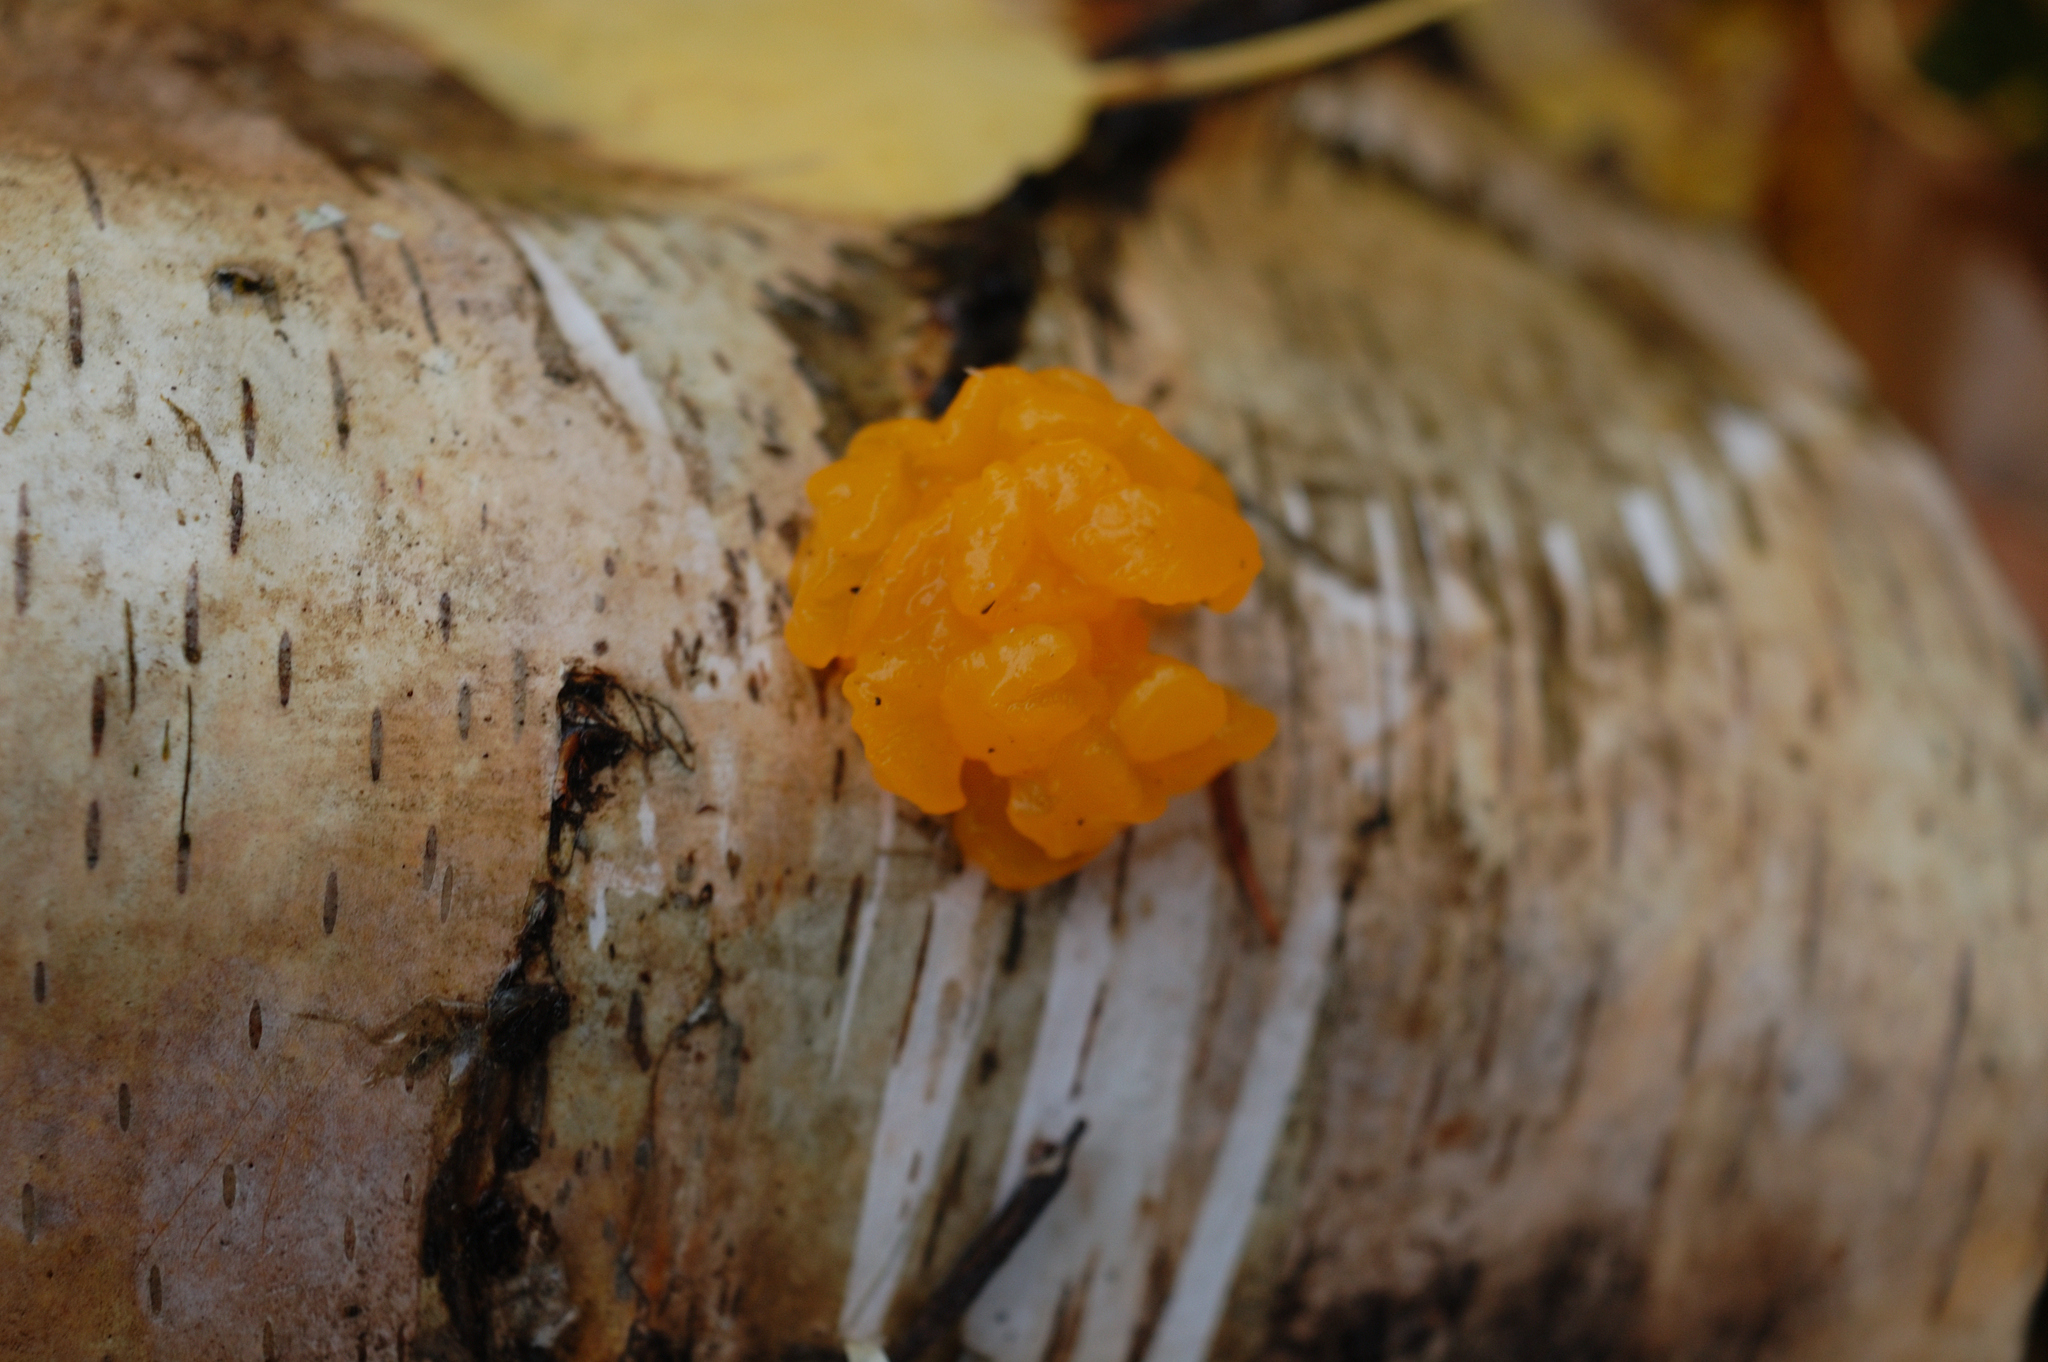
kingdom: Fungi
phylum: Basidiomycota
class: Tremellomycetes
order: Tremellales
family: Tremellaceae
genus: Tremella
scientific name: Tremella mesenterica
